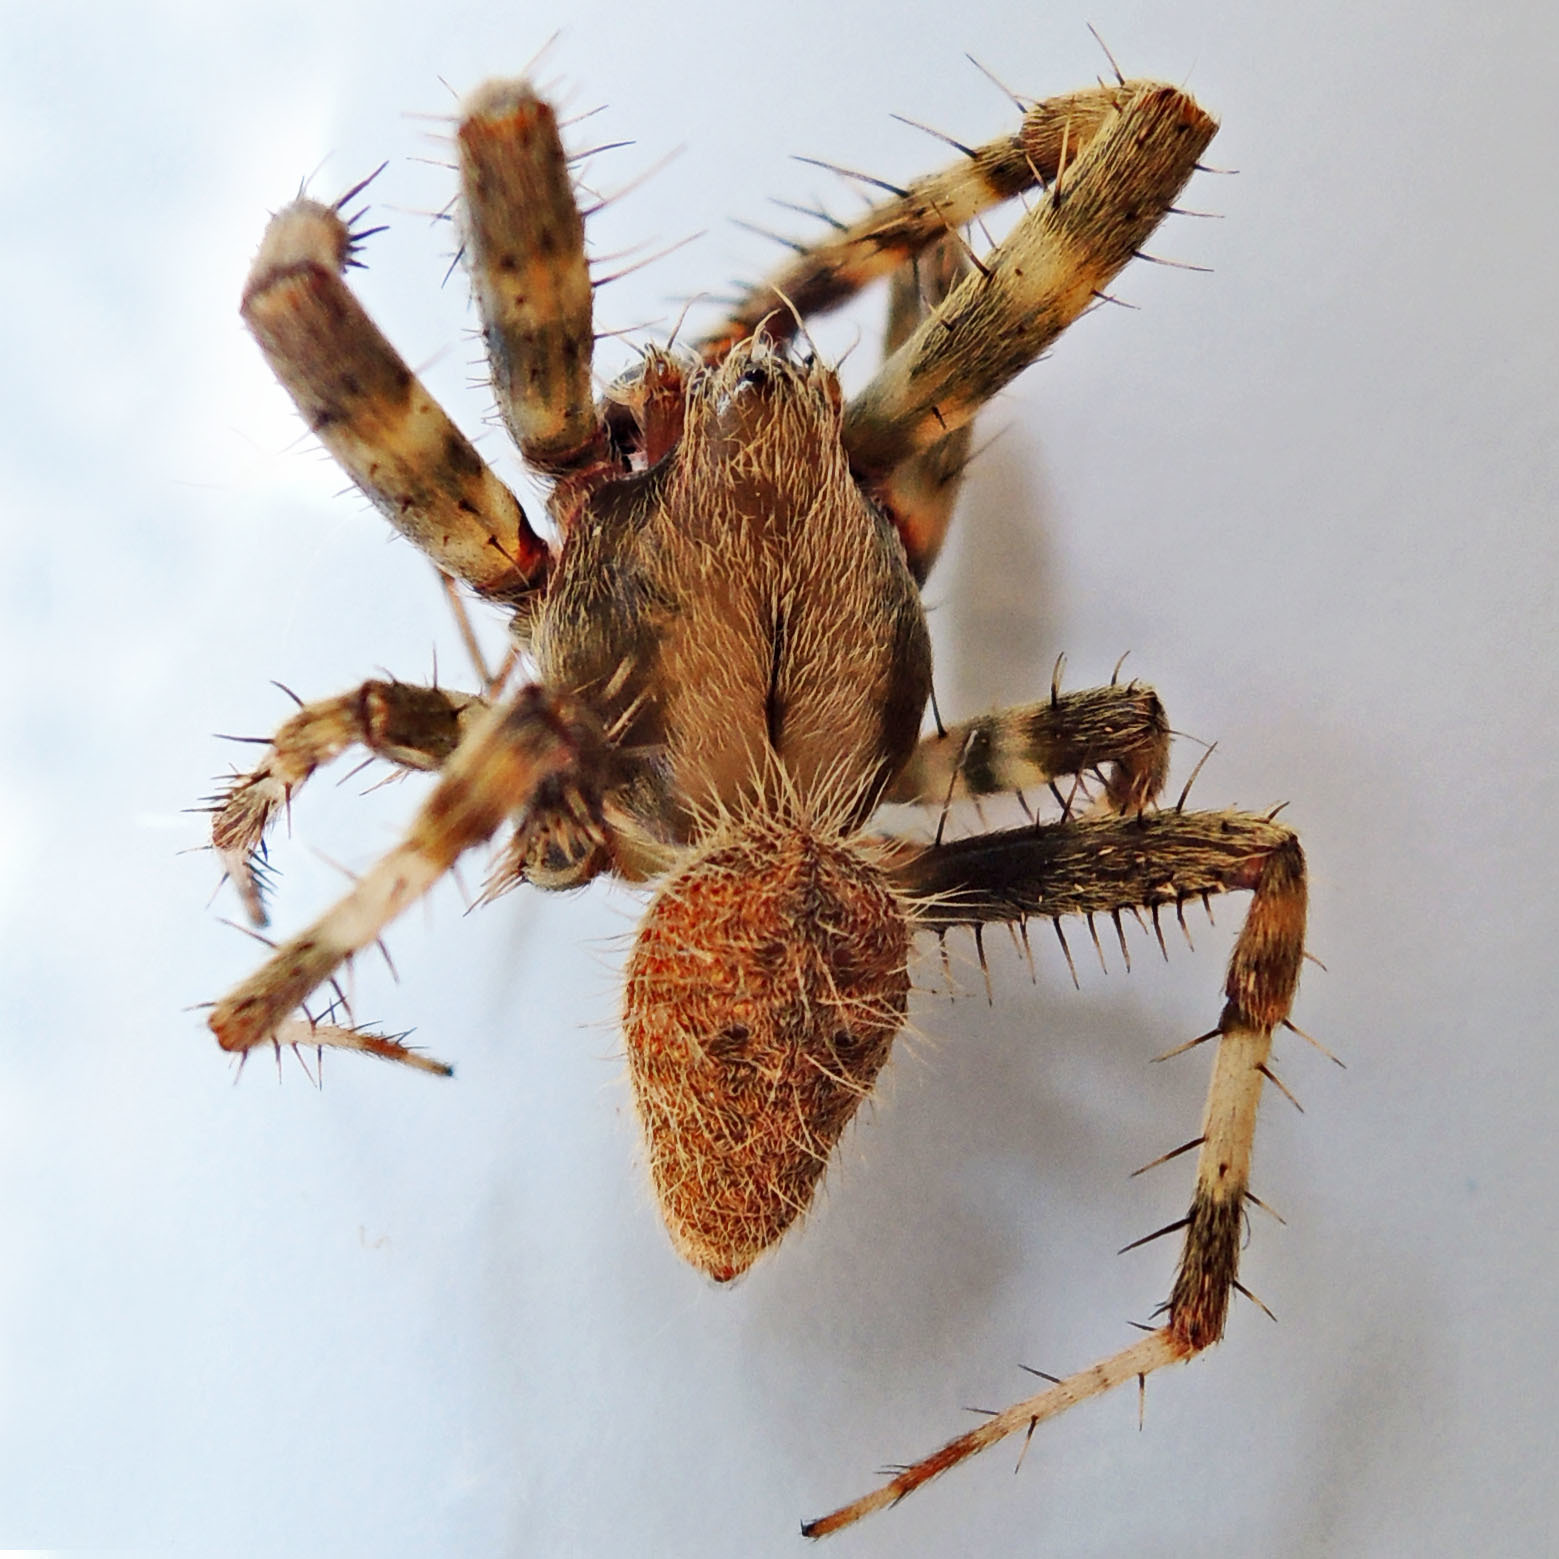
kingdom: Animalia
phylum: Arthropoda
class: Arachnida
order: Araneae
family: Araneidae
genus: Neoscona
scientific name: Neoscona crucifera
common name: Spotted orbweaver
